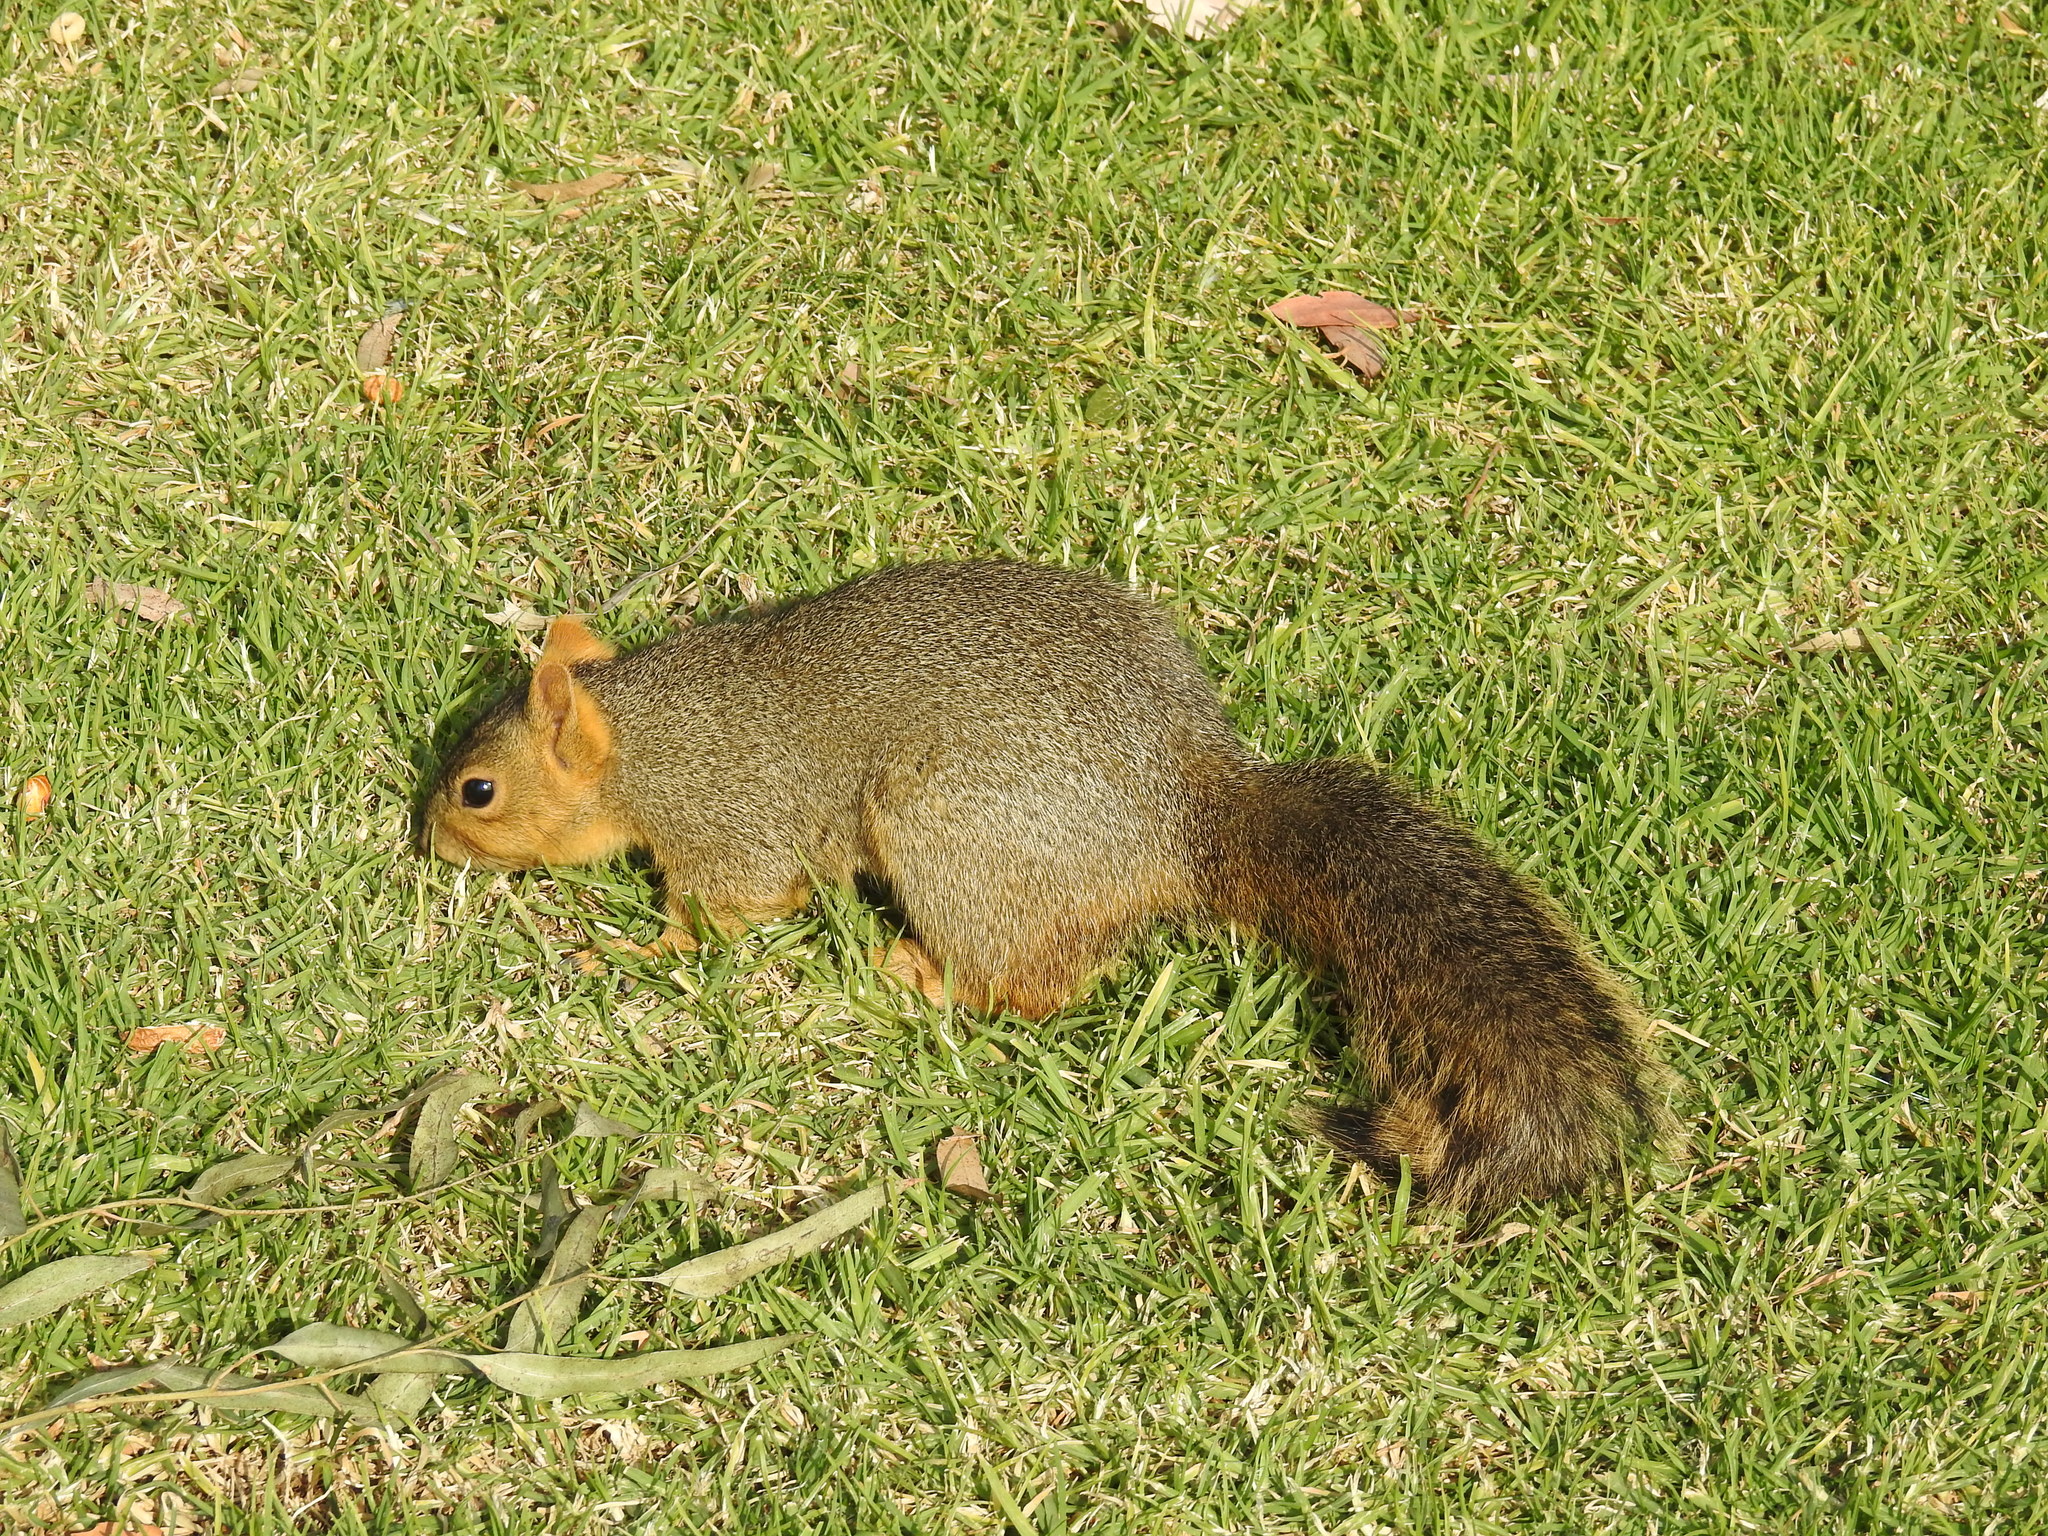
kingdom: Animalia
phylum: Chordata
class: Mammalia
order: Rodentia
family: Sciuridae
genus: Sciurus
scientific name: Sciurus niger
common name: Fox squirrel
